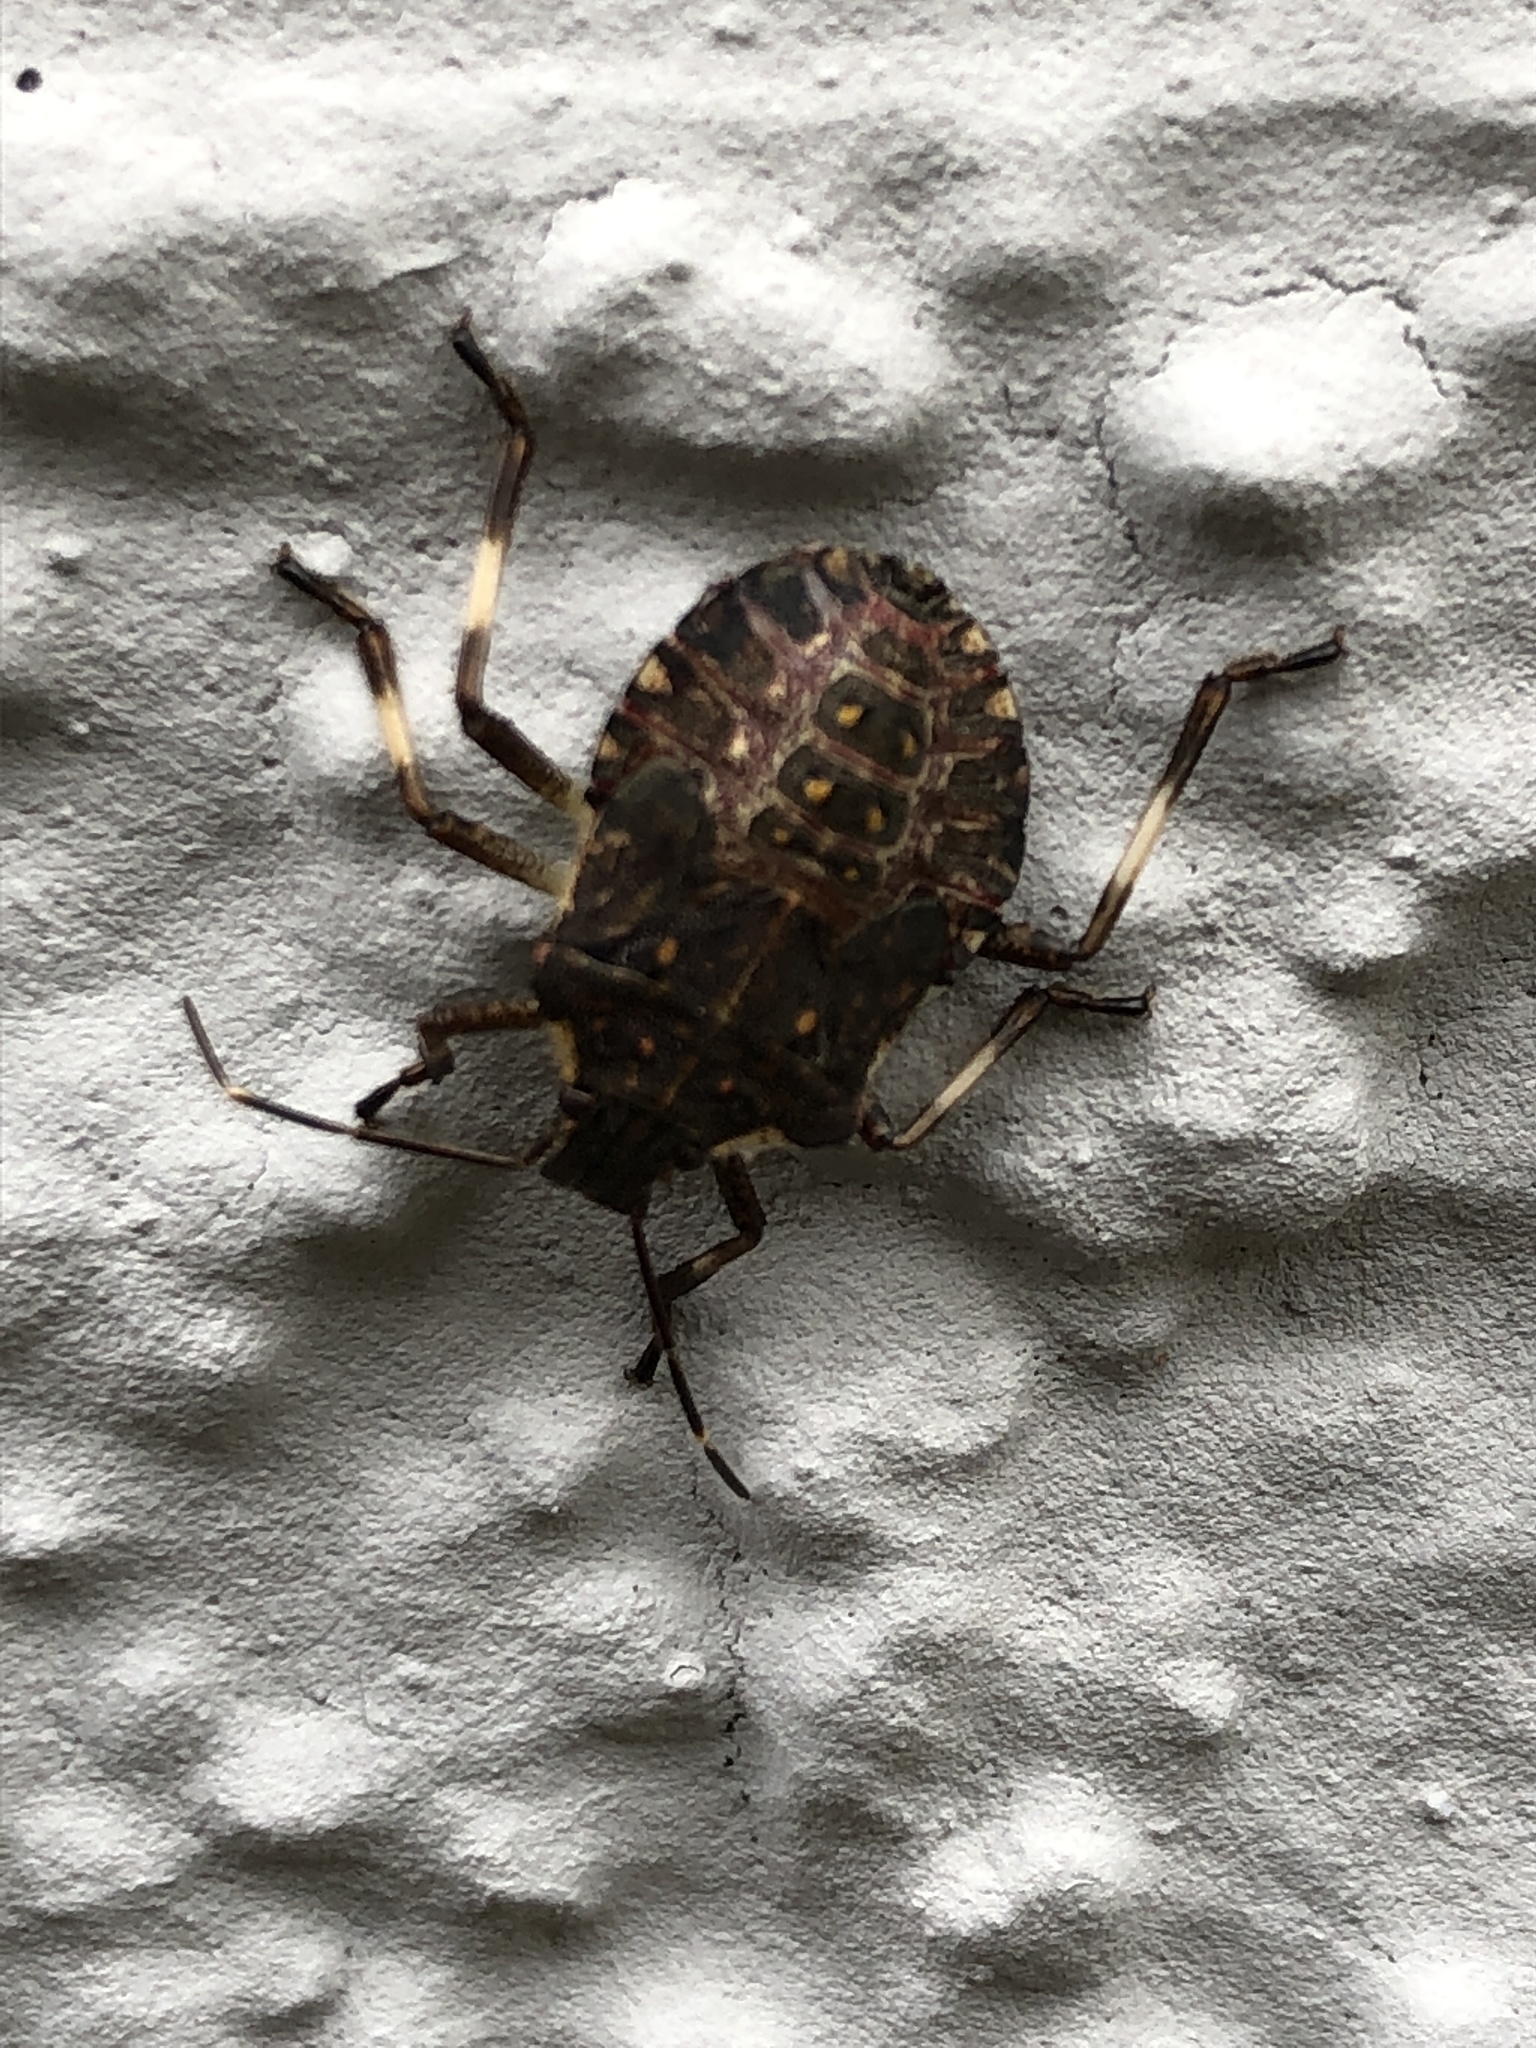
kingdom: Animalia
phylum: Arthropoda
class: Insecta
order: Hemiptera
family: Pentatomidae
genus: Halyomorpha
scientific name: Halyomorpha halys
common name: Brown marmorated stink bug
